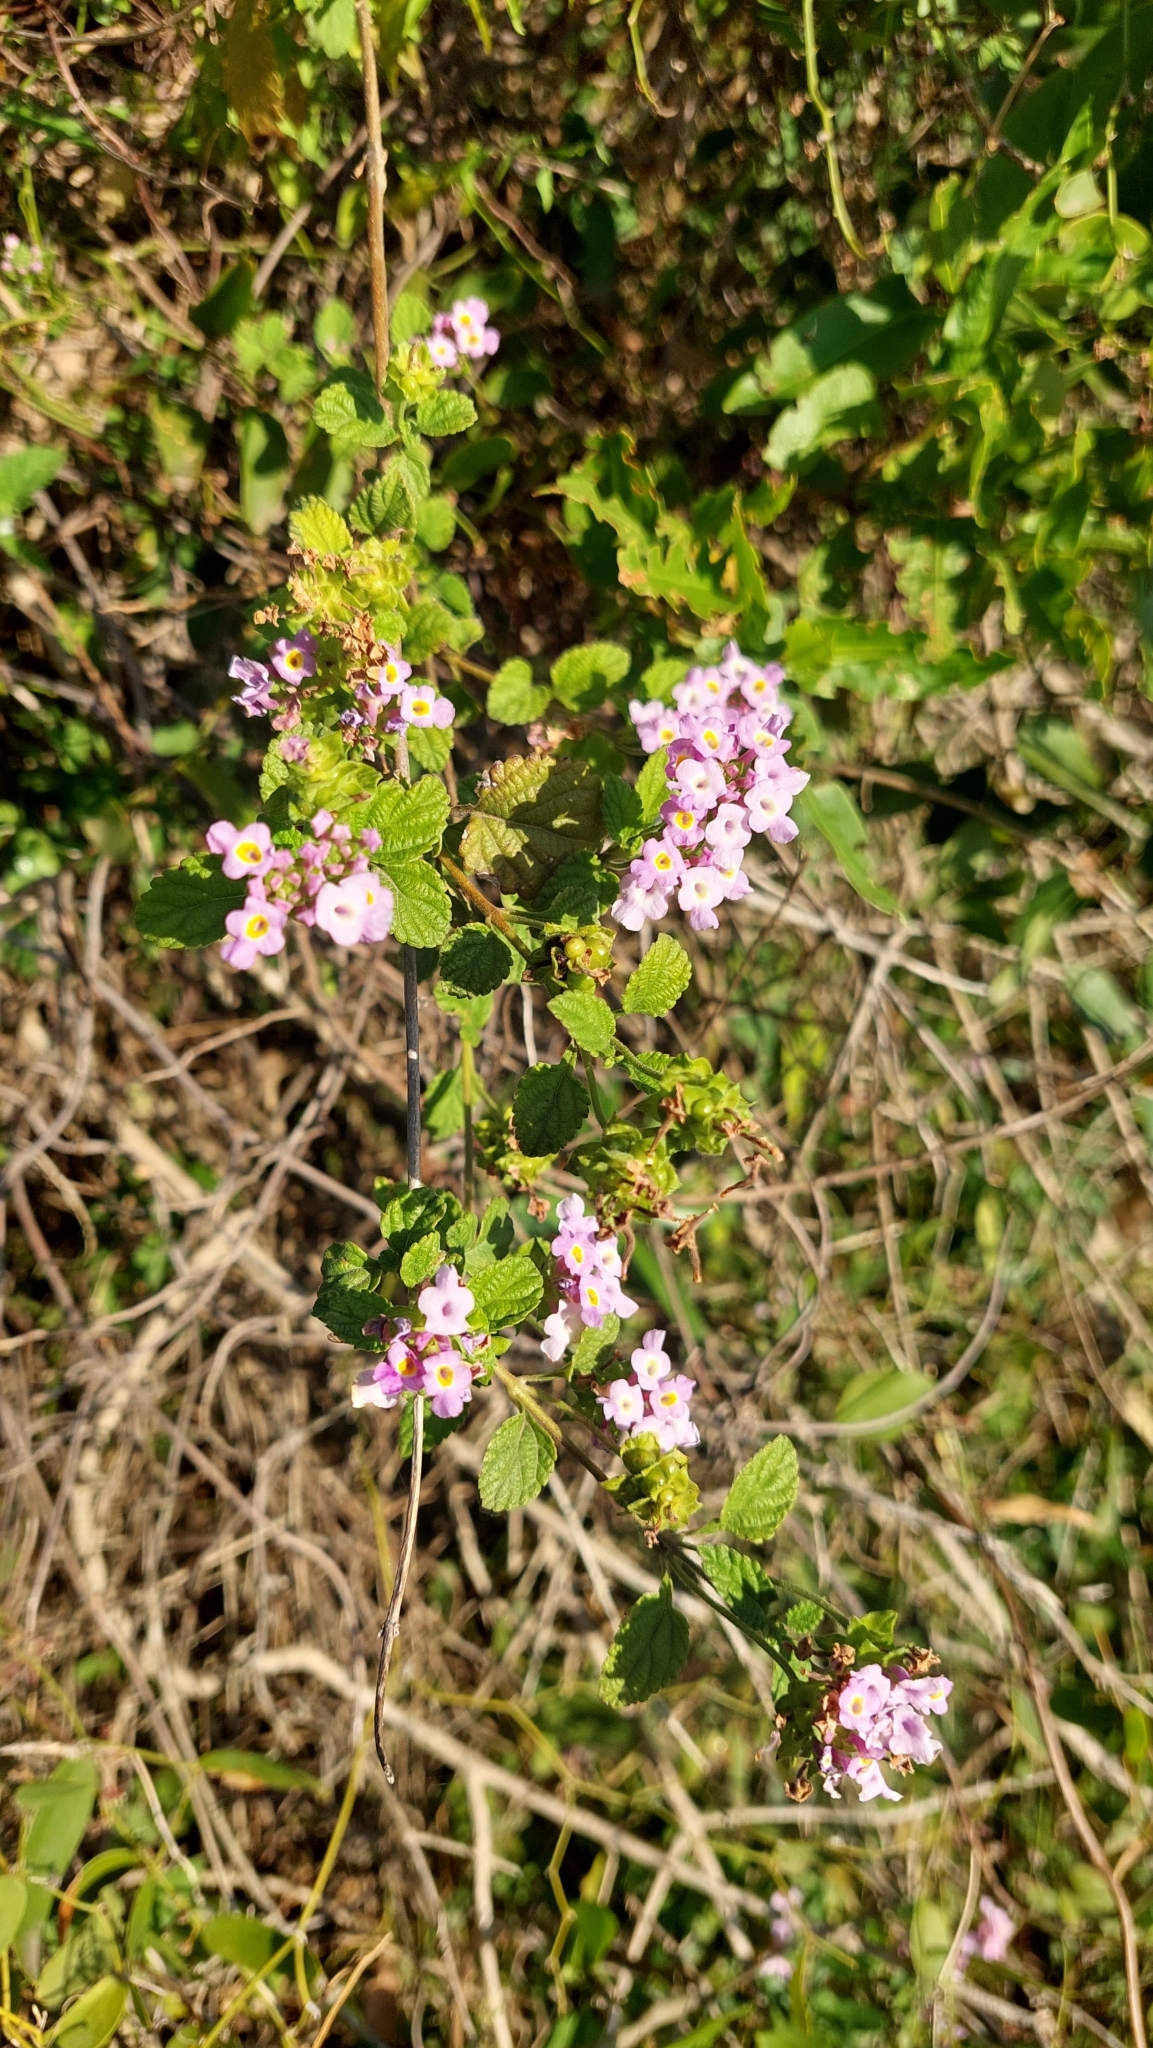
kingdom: Plantae
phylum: Tracheophyta
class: Magnoliopsida
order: Lamiales
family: Verbenaceae
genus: Lantana
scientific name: Lantana megapotamica
